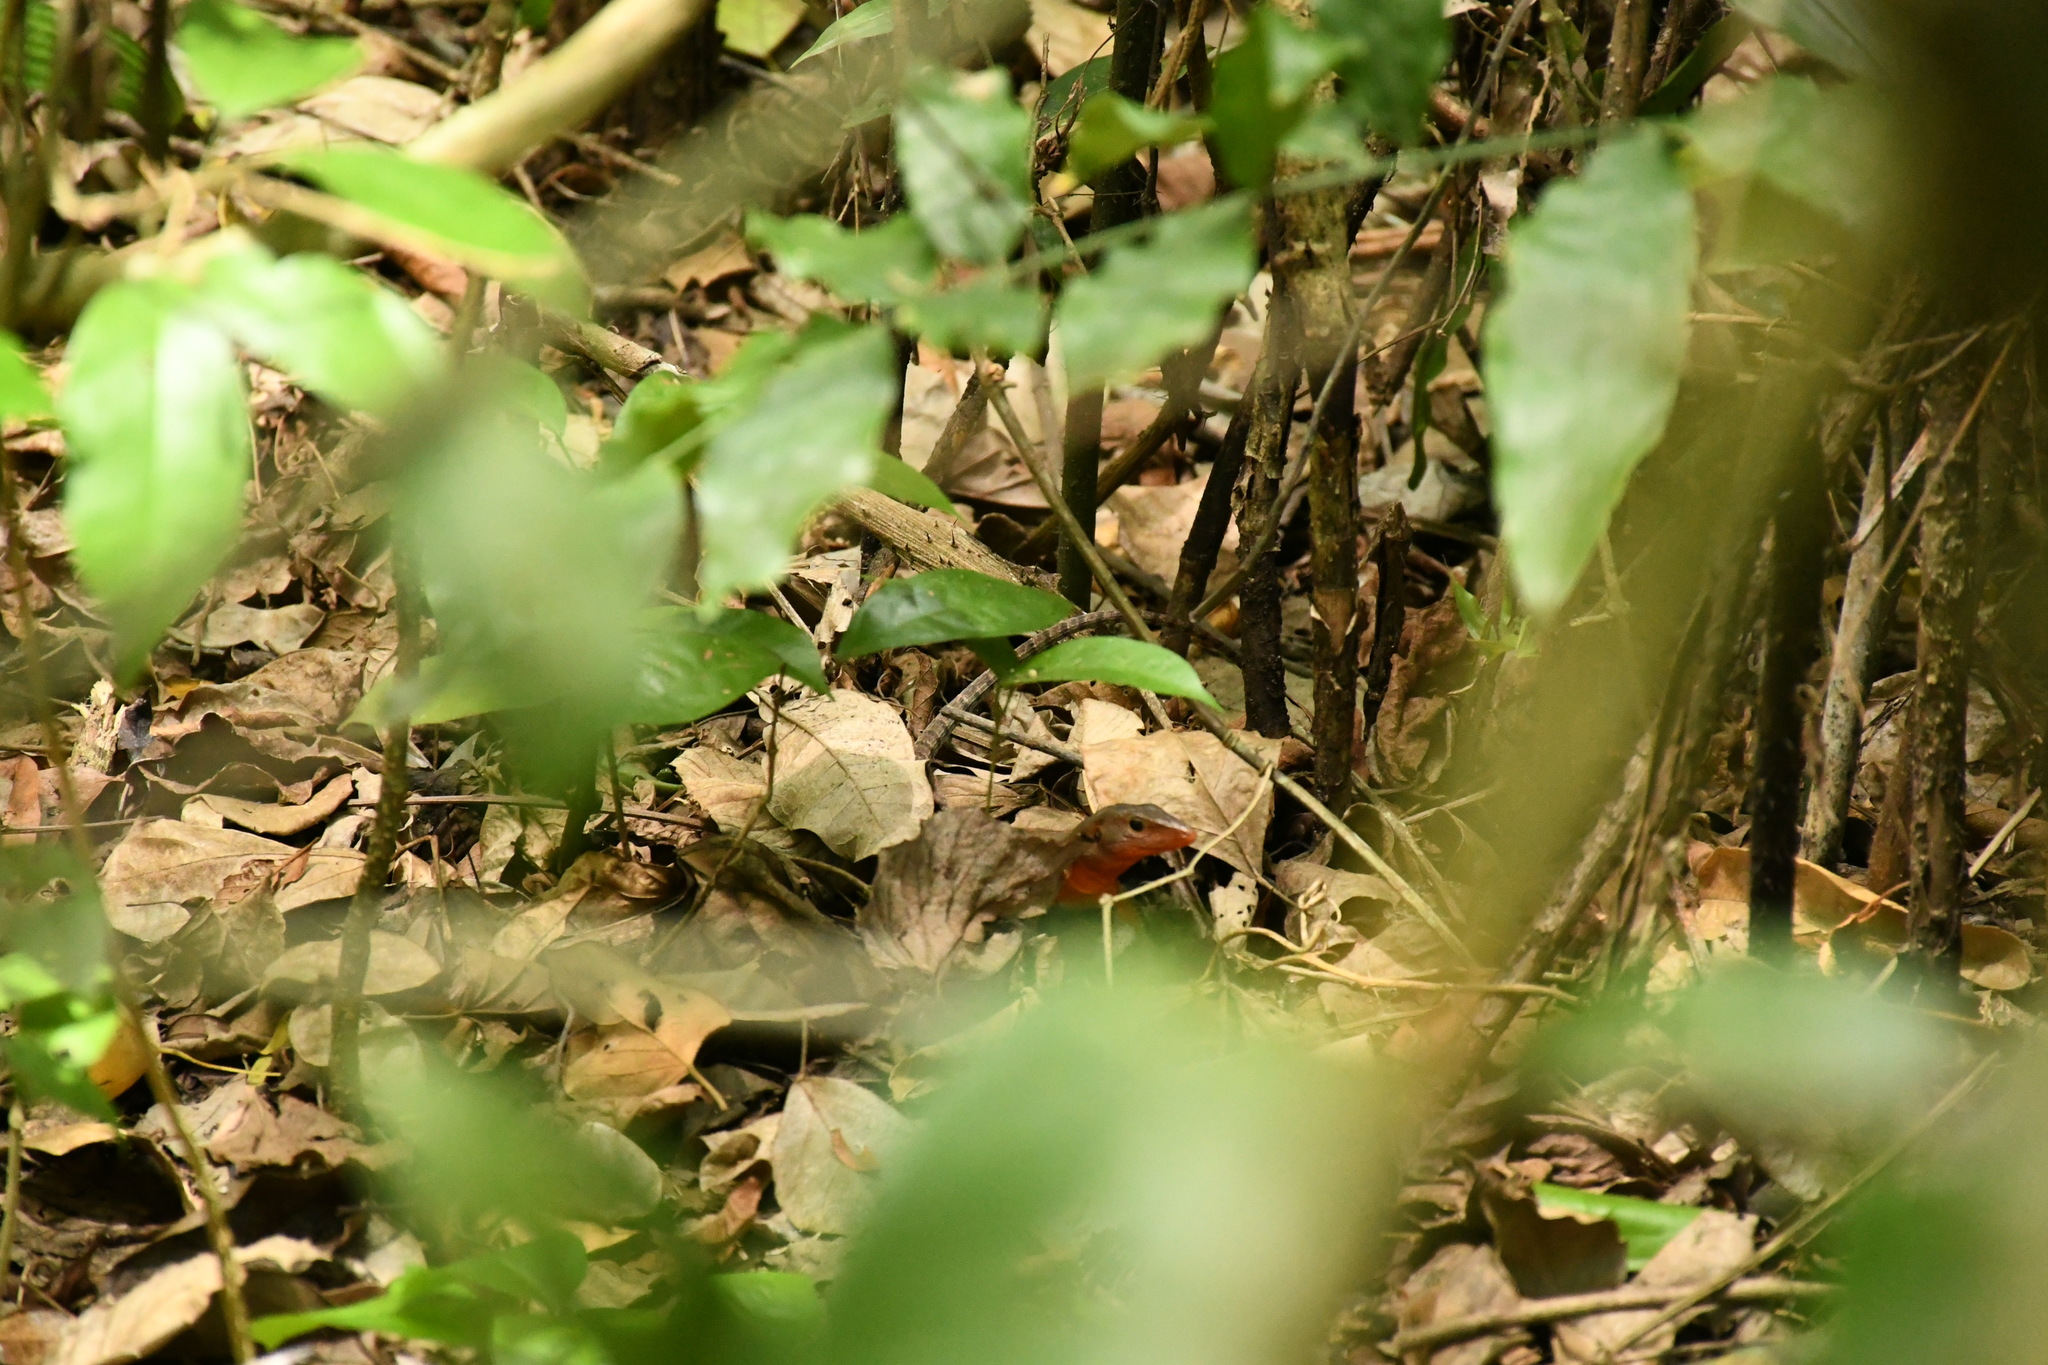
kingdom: Animalia
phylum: Chordata
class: Squamata
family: Teiidae
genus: Holcosus
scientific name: Holcosus undulatus
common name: Rainbow ameiva
